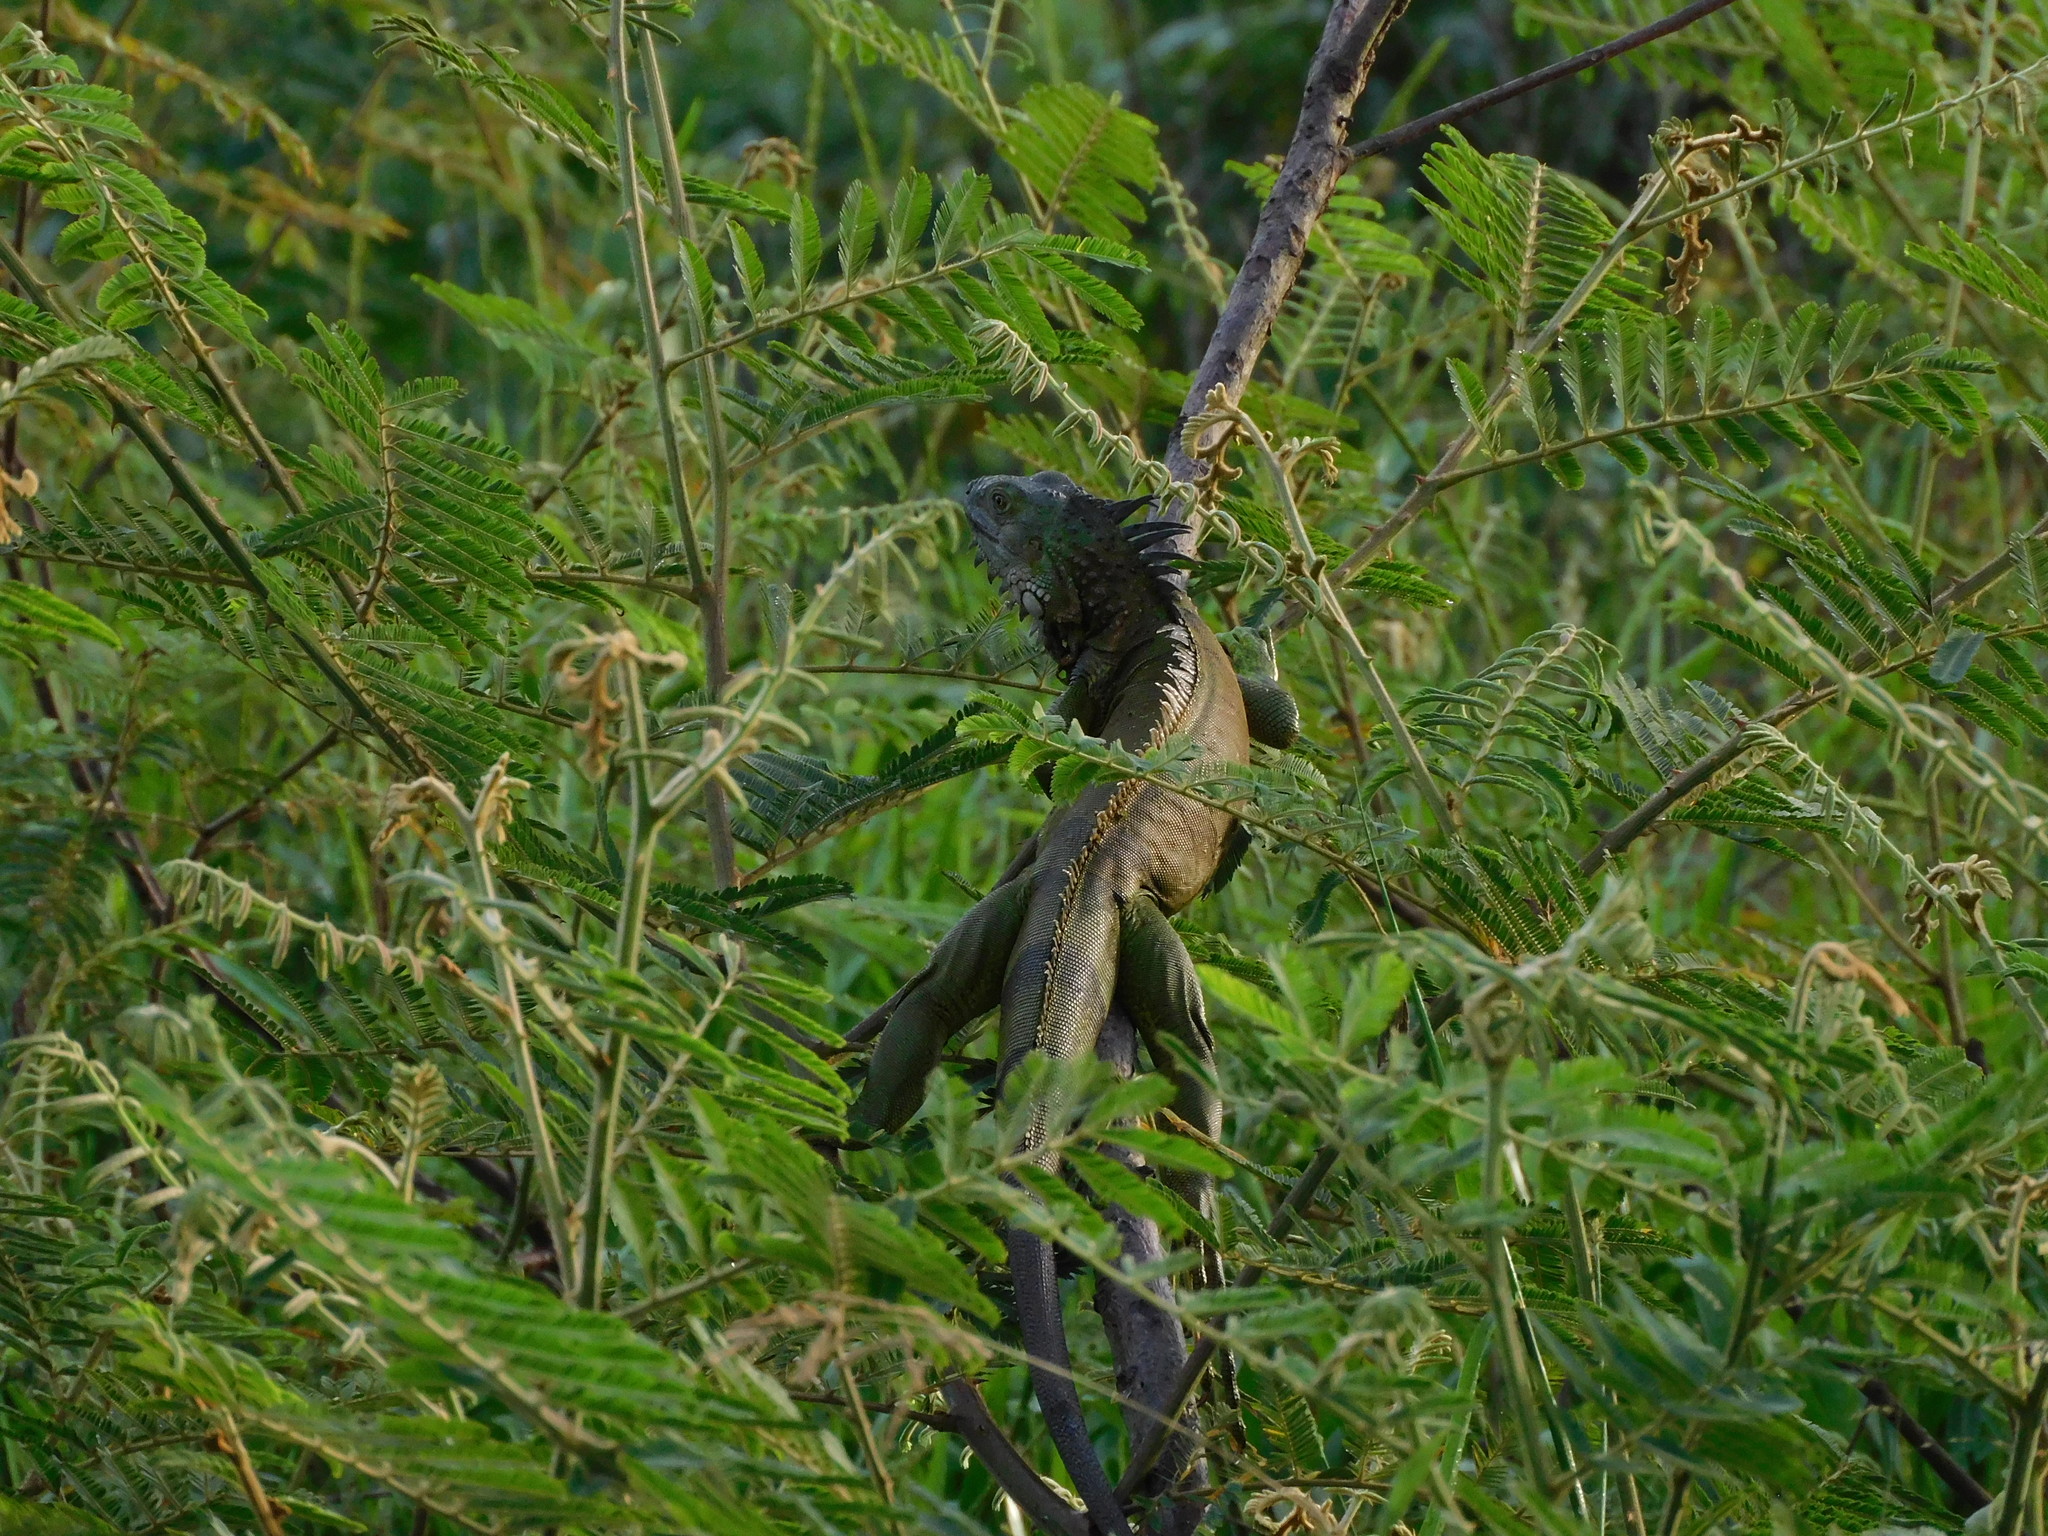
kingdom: Animalia
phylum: Chordata
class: Squamata
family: Iguanidae
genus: Iguana
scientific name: Iguana iguana
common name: Green iguana
